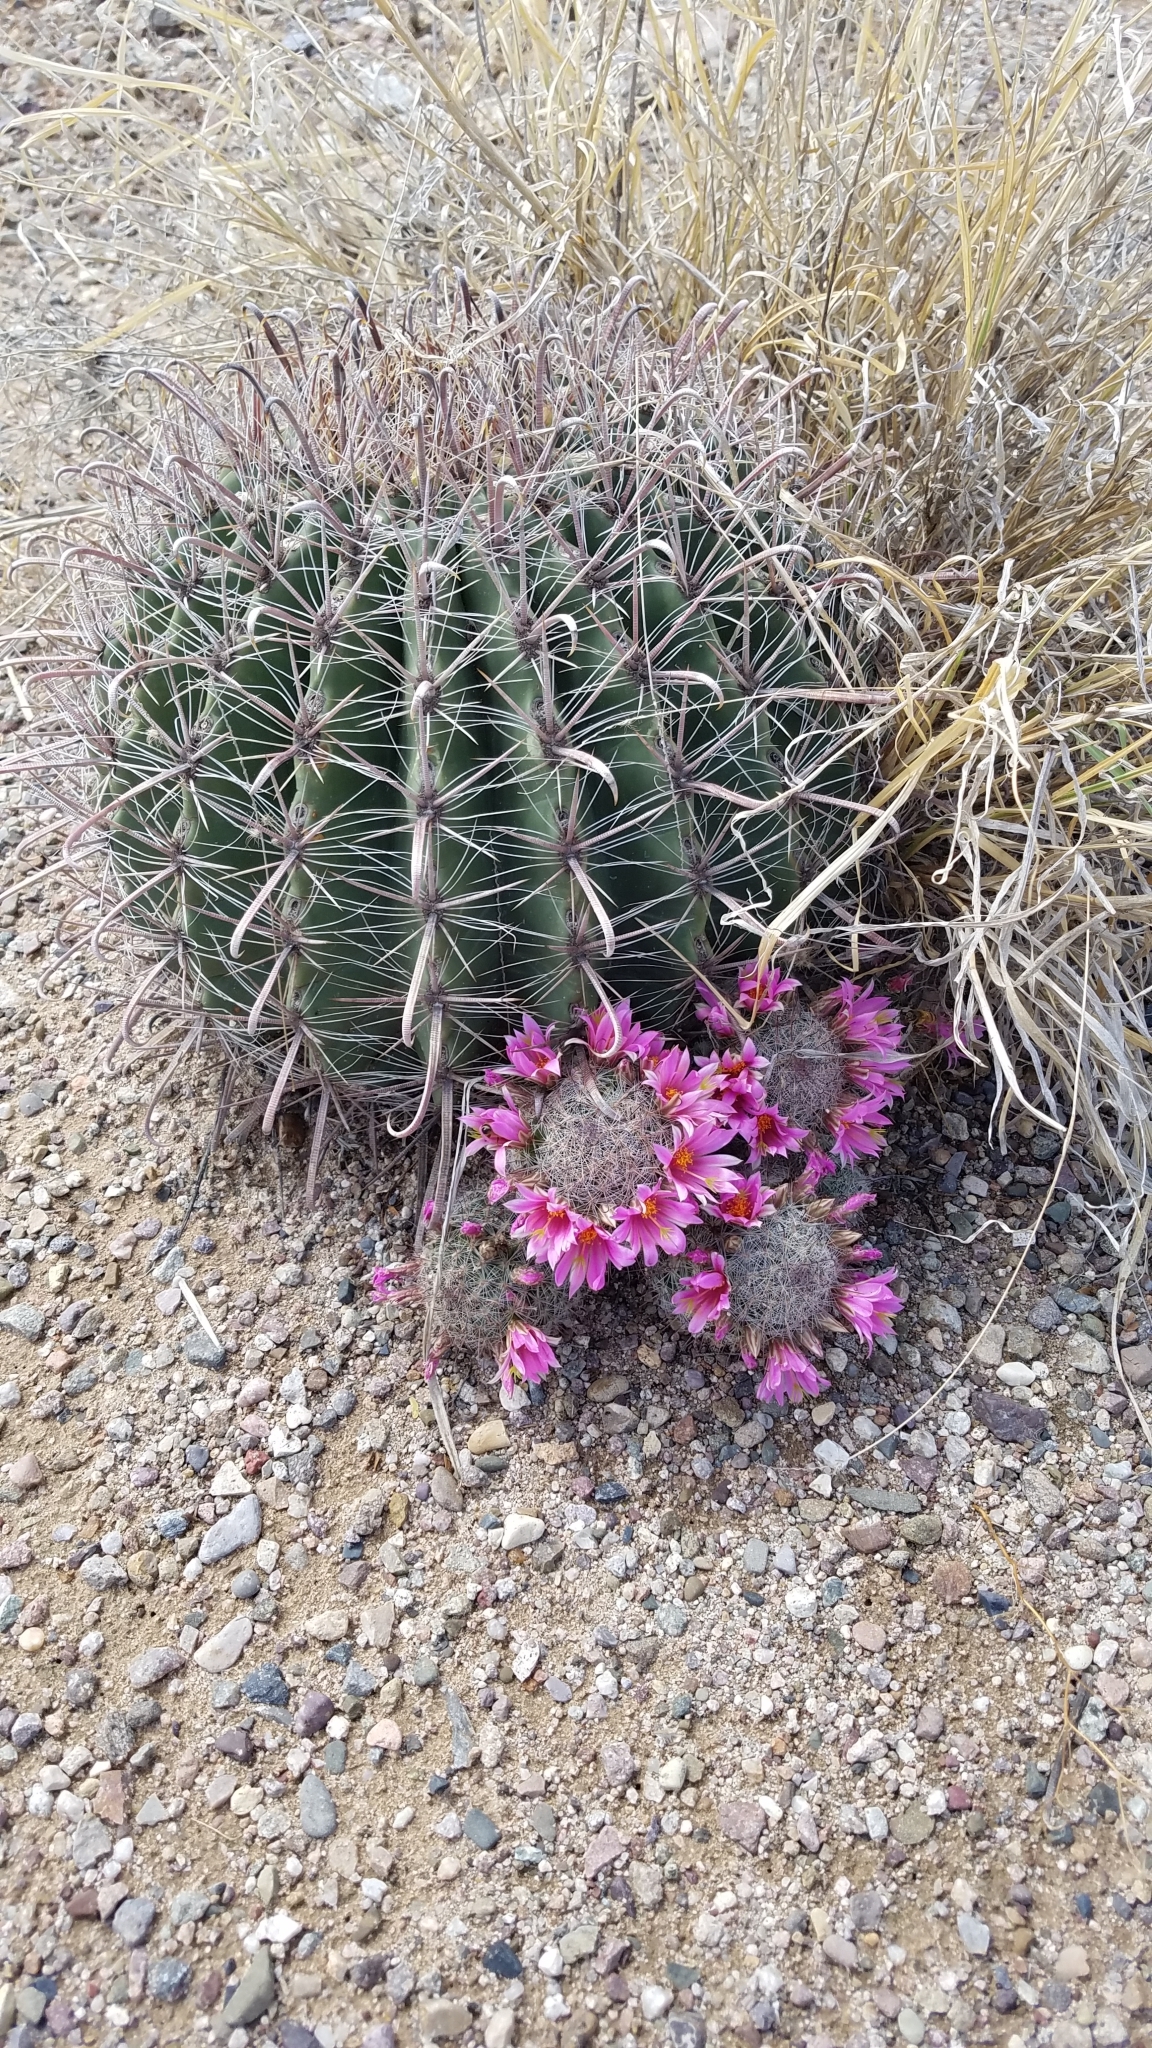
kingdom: Plantae
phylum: Tracheophyta
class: Magnoliopsida
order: Caryophyllales
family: Cactaceae
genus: Ferocactus
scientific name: Ferocactus wislizeni
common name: Candy barrel cactus
